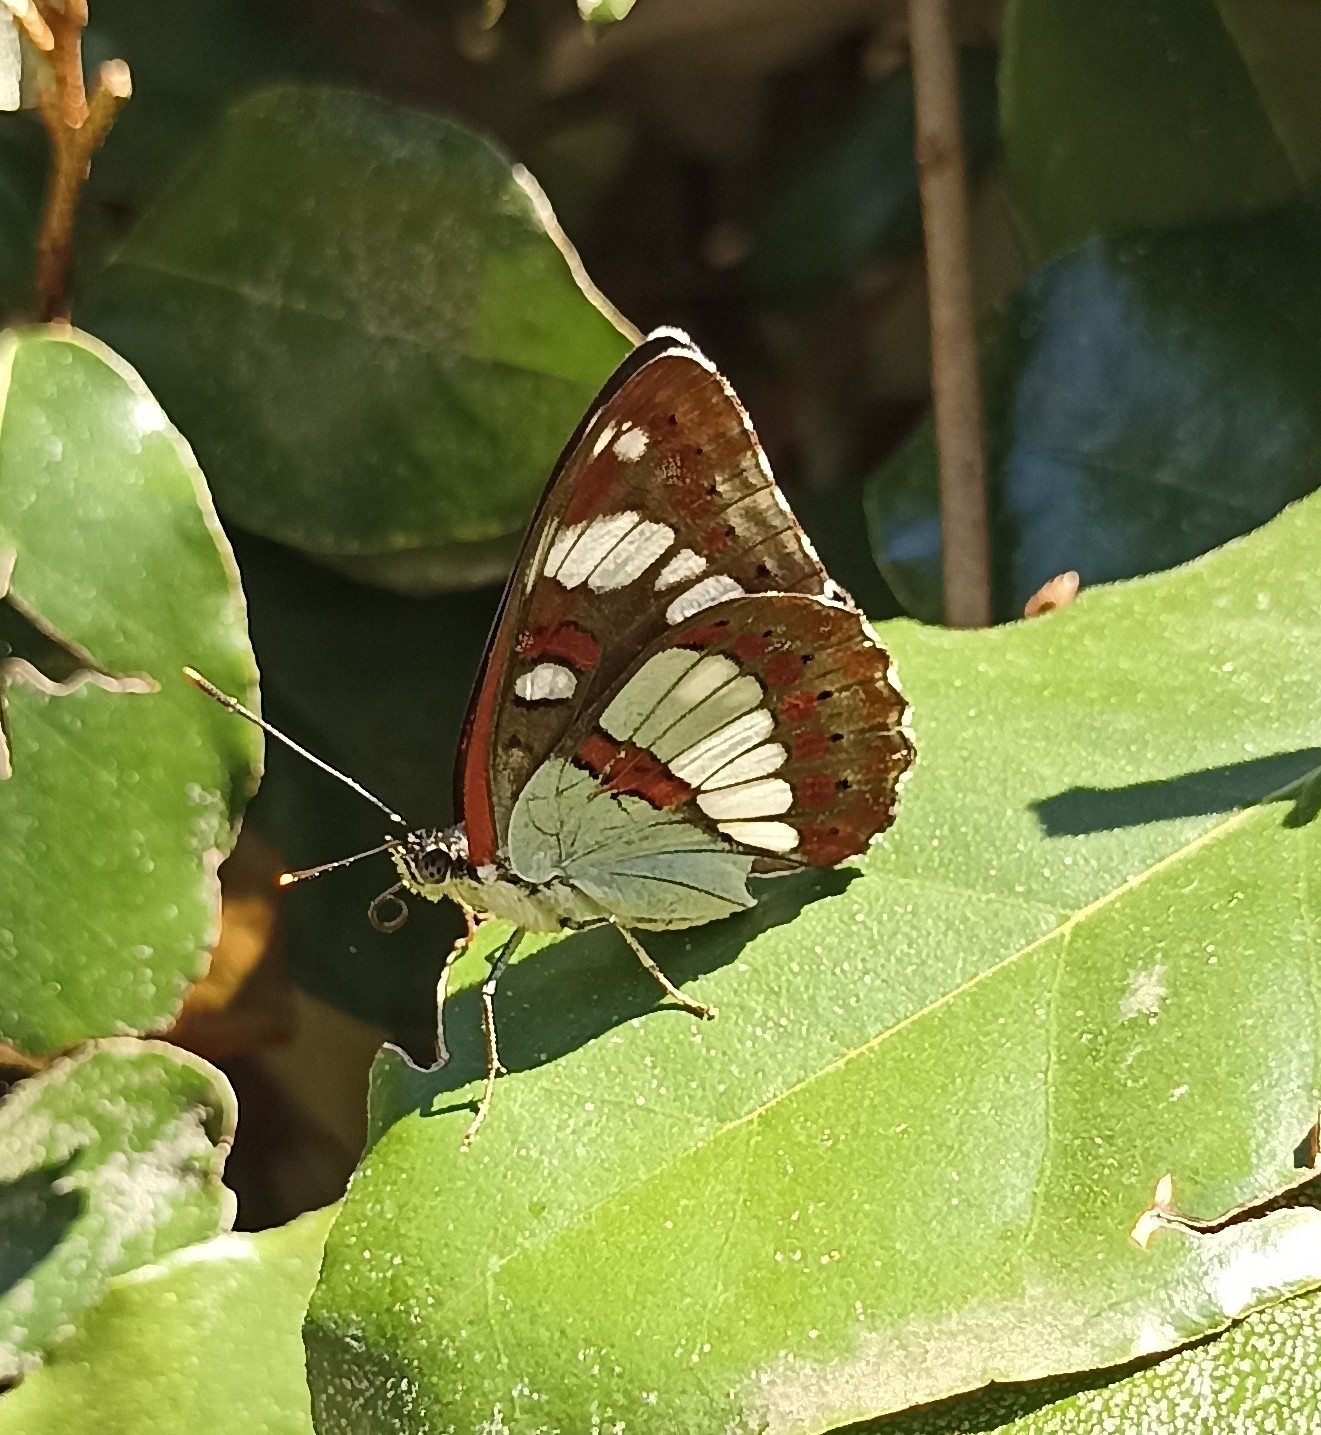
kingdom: Animalia
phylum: Arthropoda
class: Insecta
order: Lepidoptera
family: Nymphalidae
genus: Limenitis
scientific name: Limenitis reducta
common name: Southern white admiral
